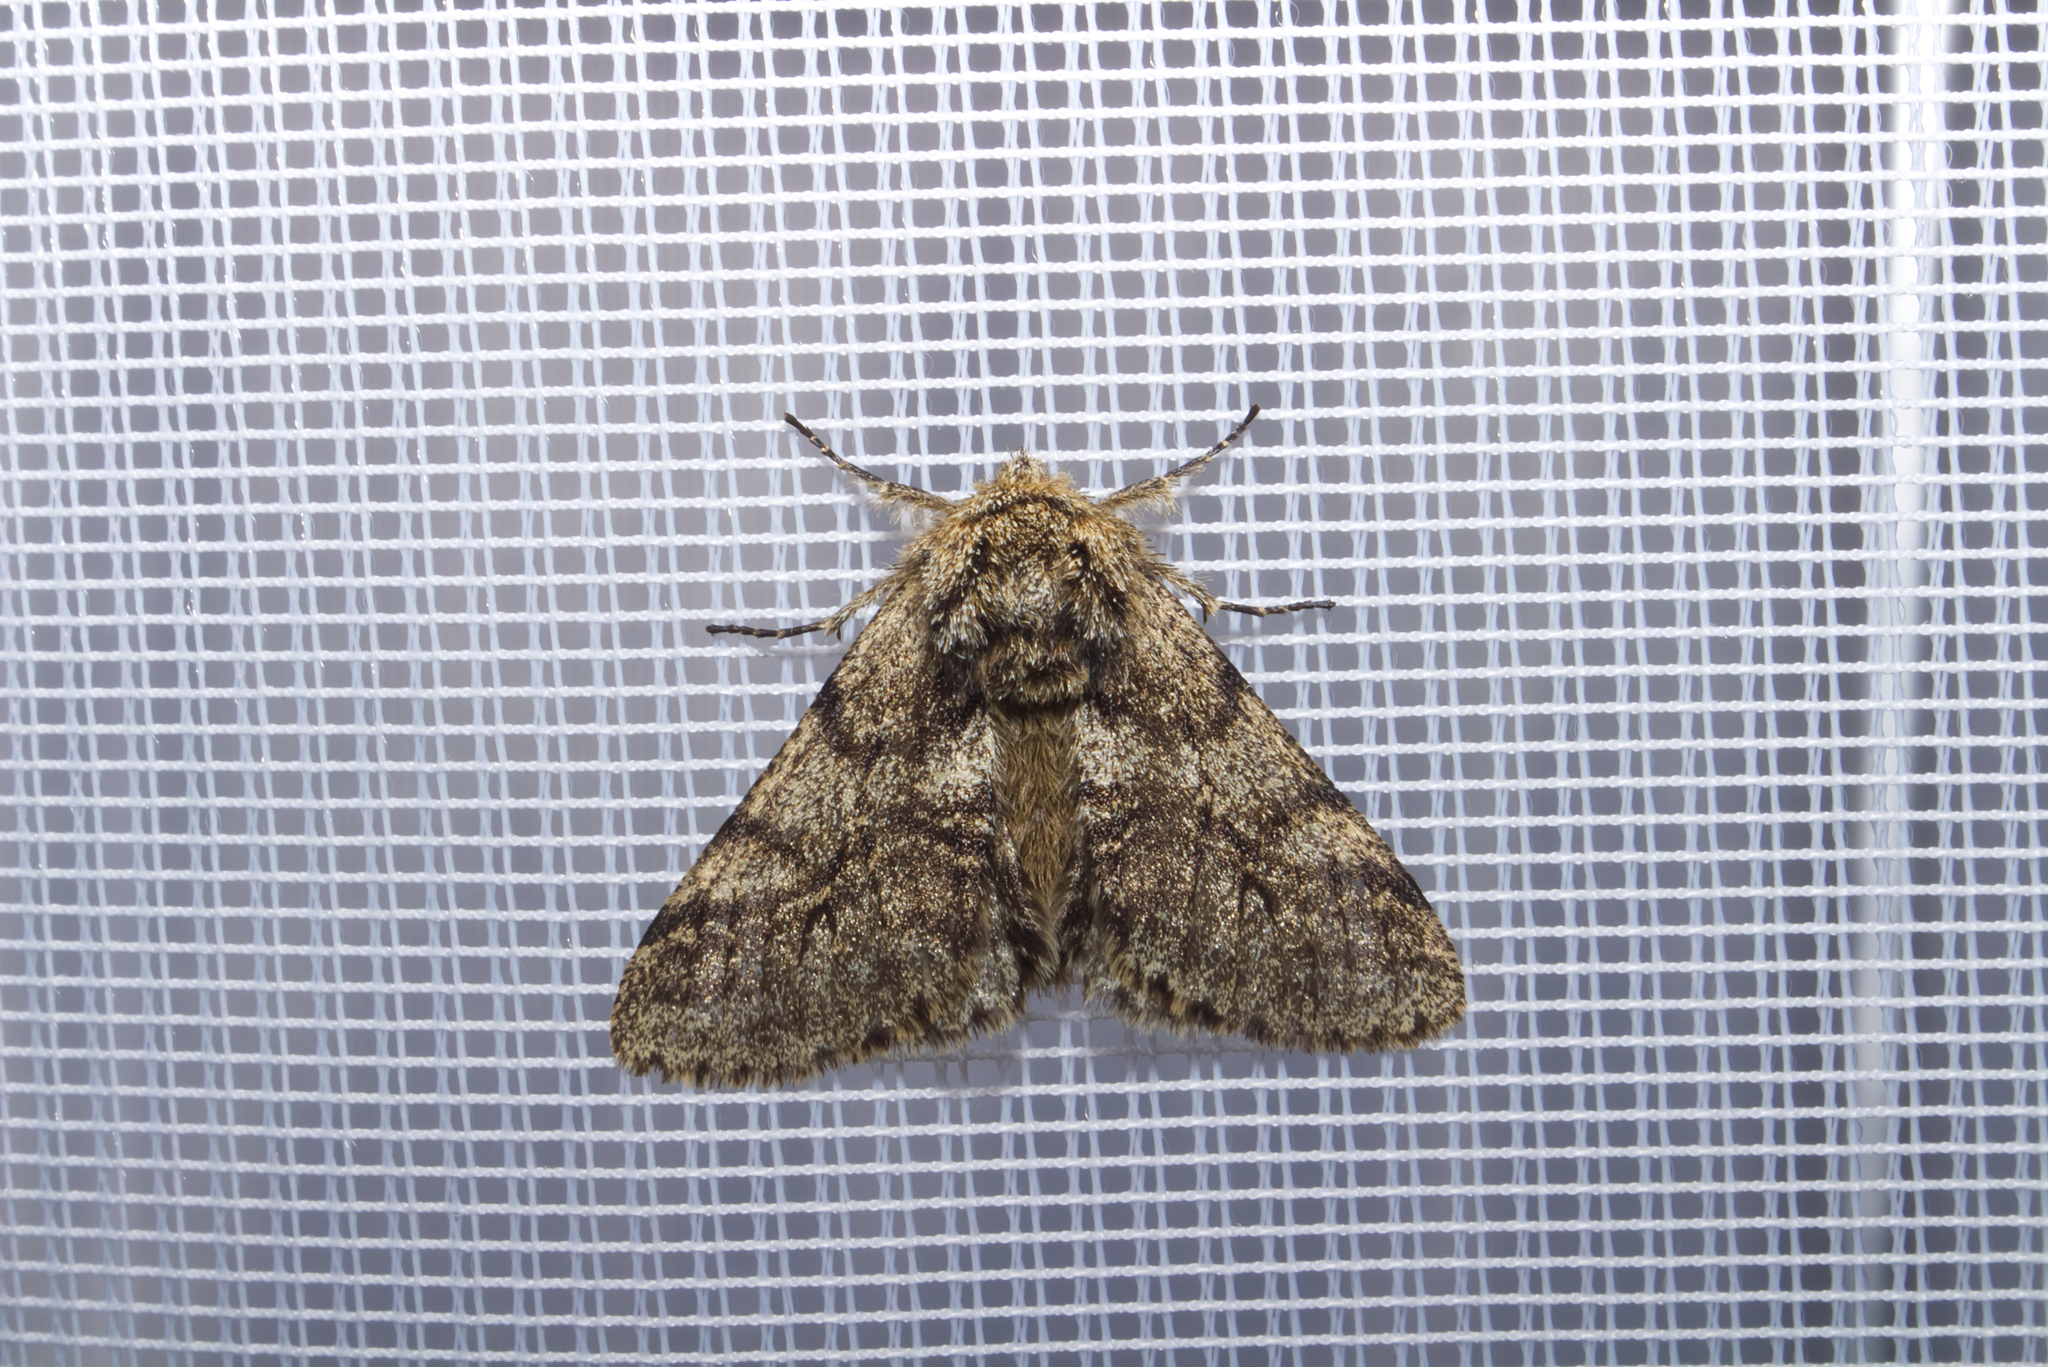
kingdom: Animalia
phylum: Arthropoda
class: Insecta
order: Lepidoptera
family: Geometridae
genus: Lycia
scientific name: Lycia hirtaria
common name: Brindled beauty
